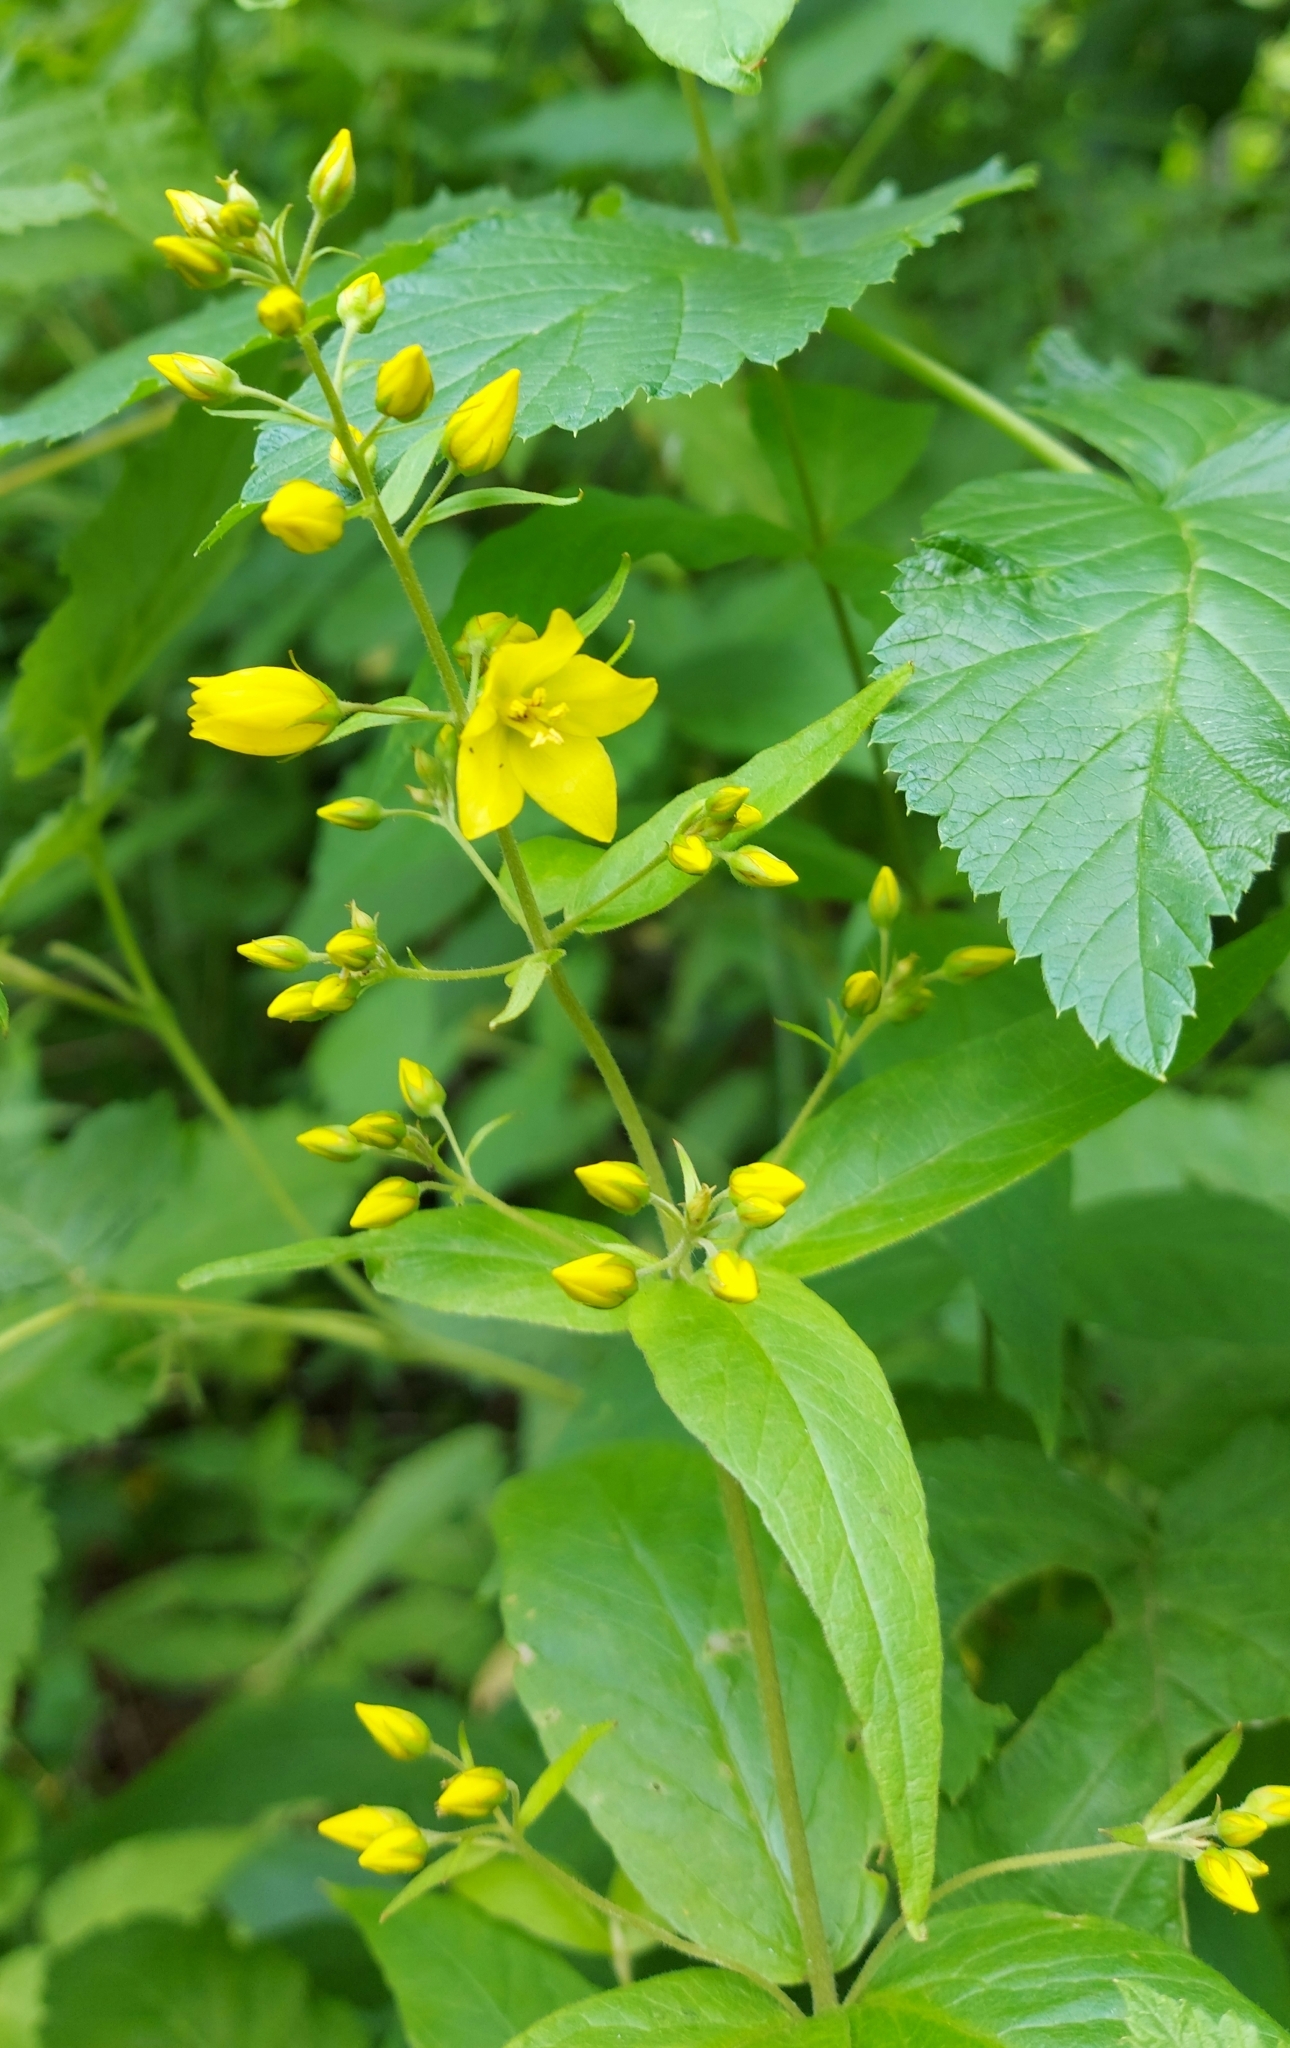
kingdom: Plantae
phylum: Tracheophyta
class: Magnoliopsida
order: Ericales
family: Primulaceae
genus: Lysimachia
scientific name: Lysimachia vulgaris
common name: Yellow loosestrife
